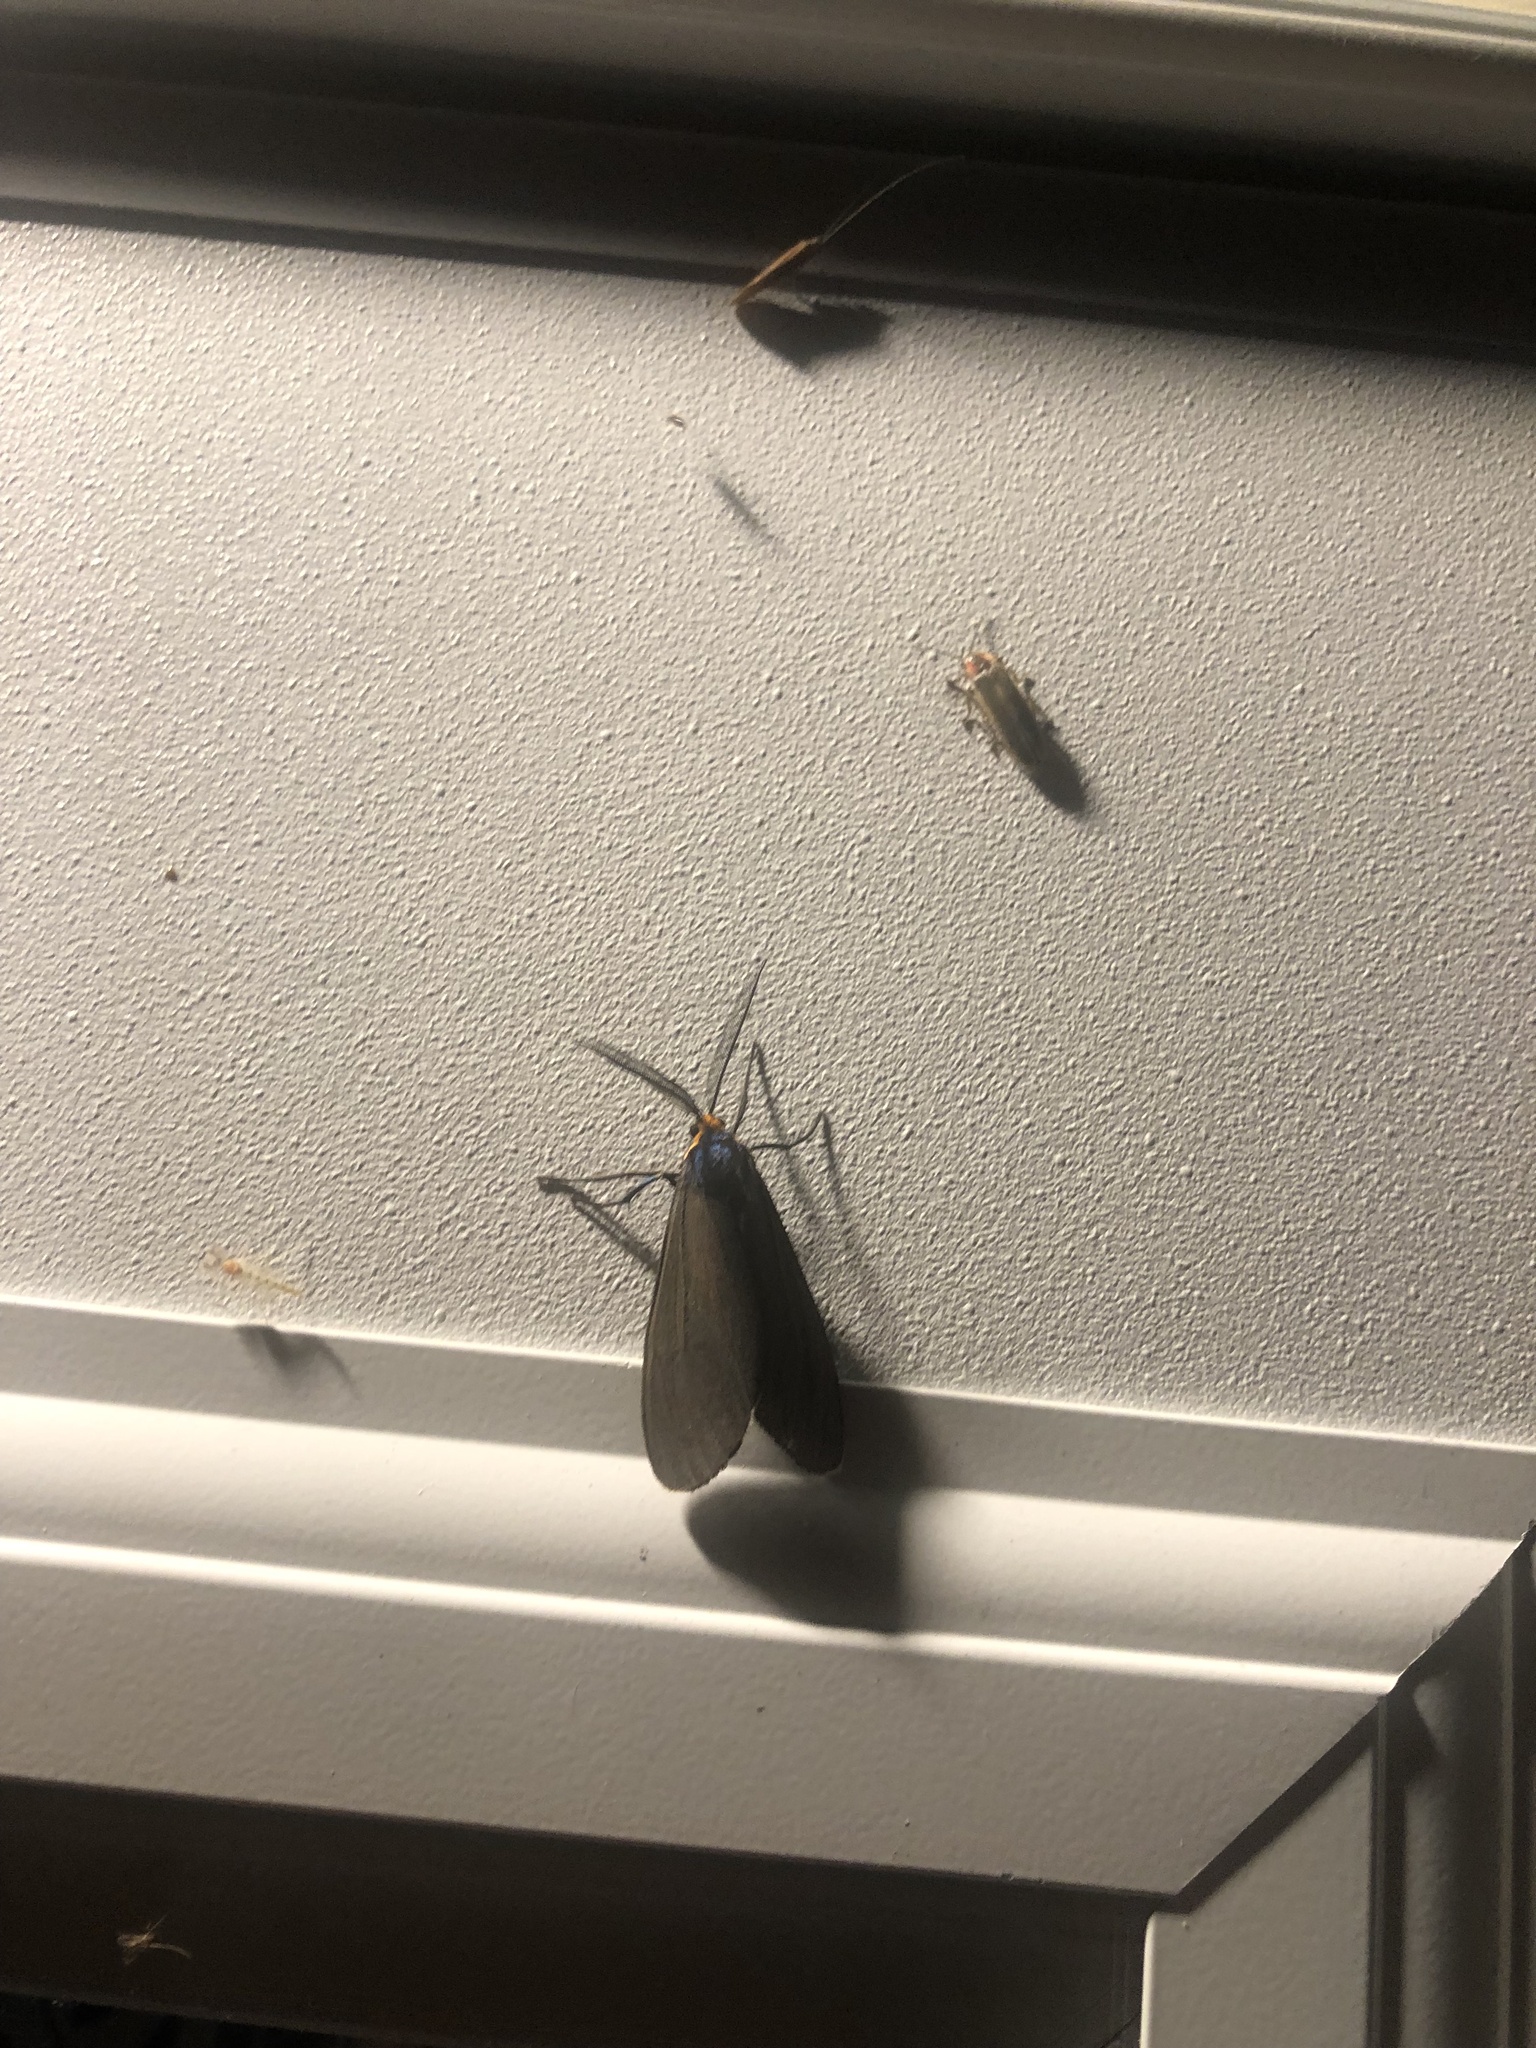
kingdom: Animalia
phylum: Arthropoda
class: Insecta
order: Lepidoptera
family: Erebidae
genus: Ctenucha
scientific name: Ctenucha virginica
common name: Virginia ctenucha moth
